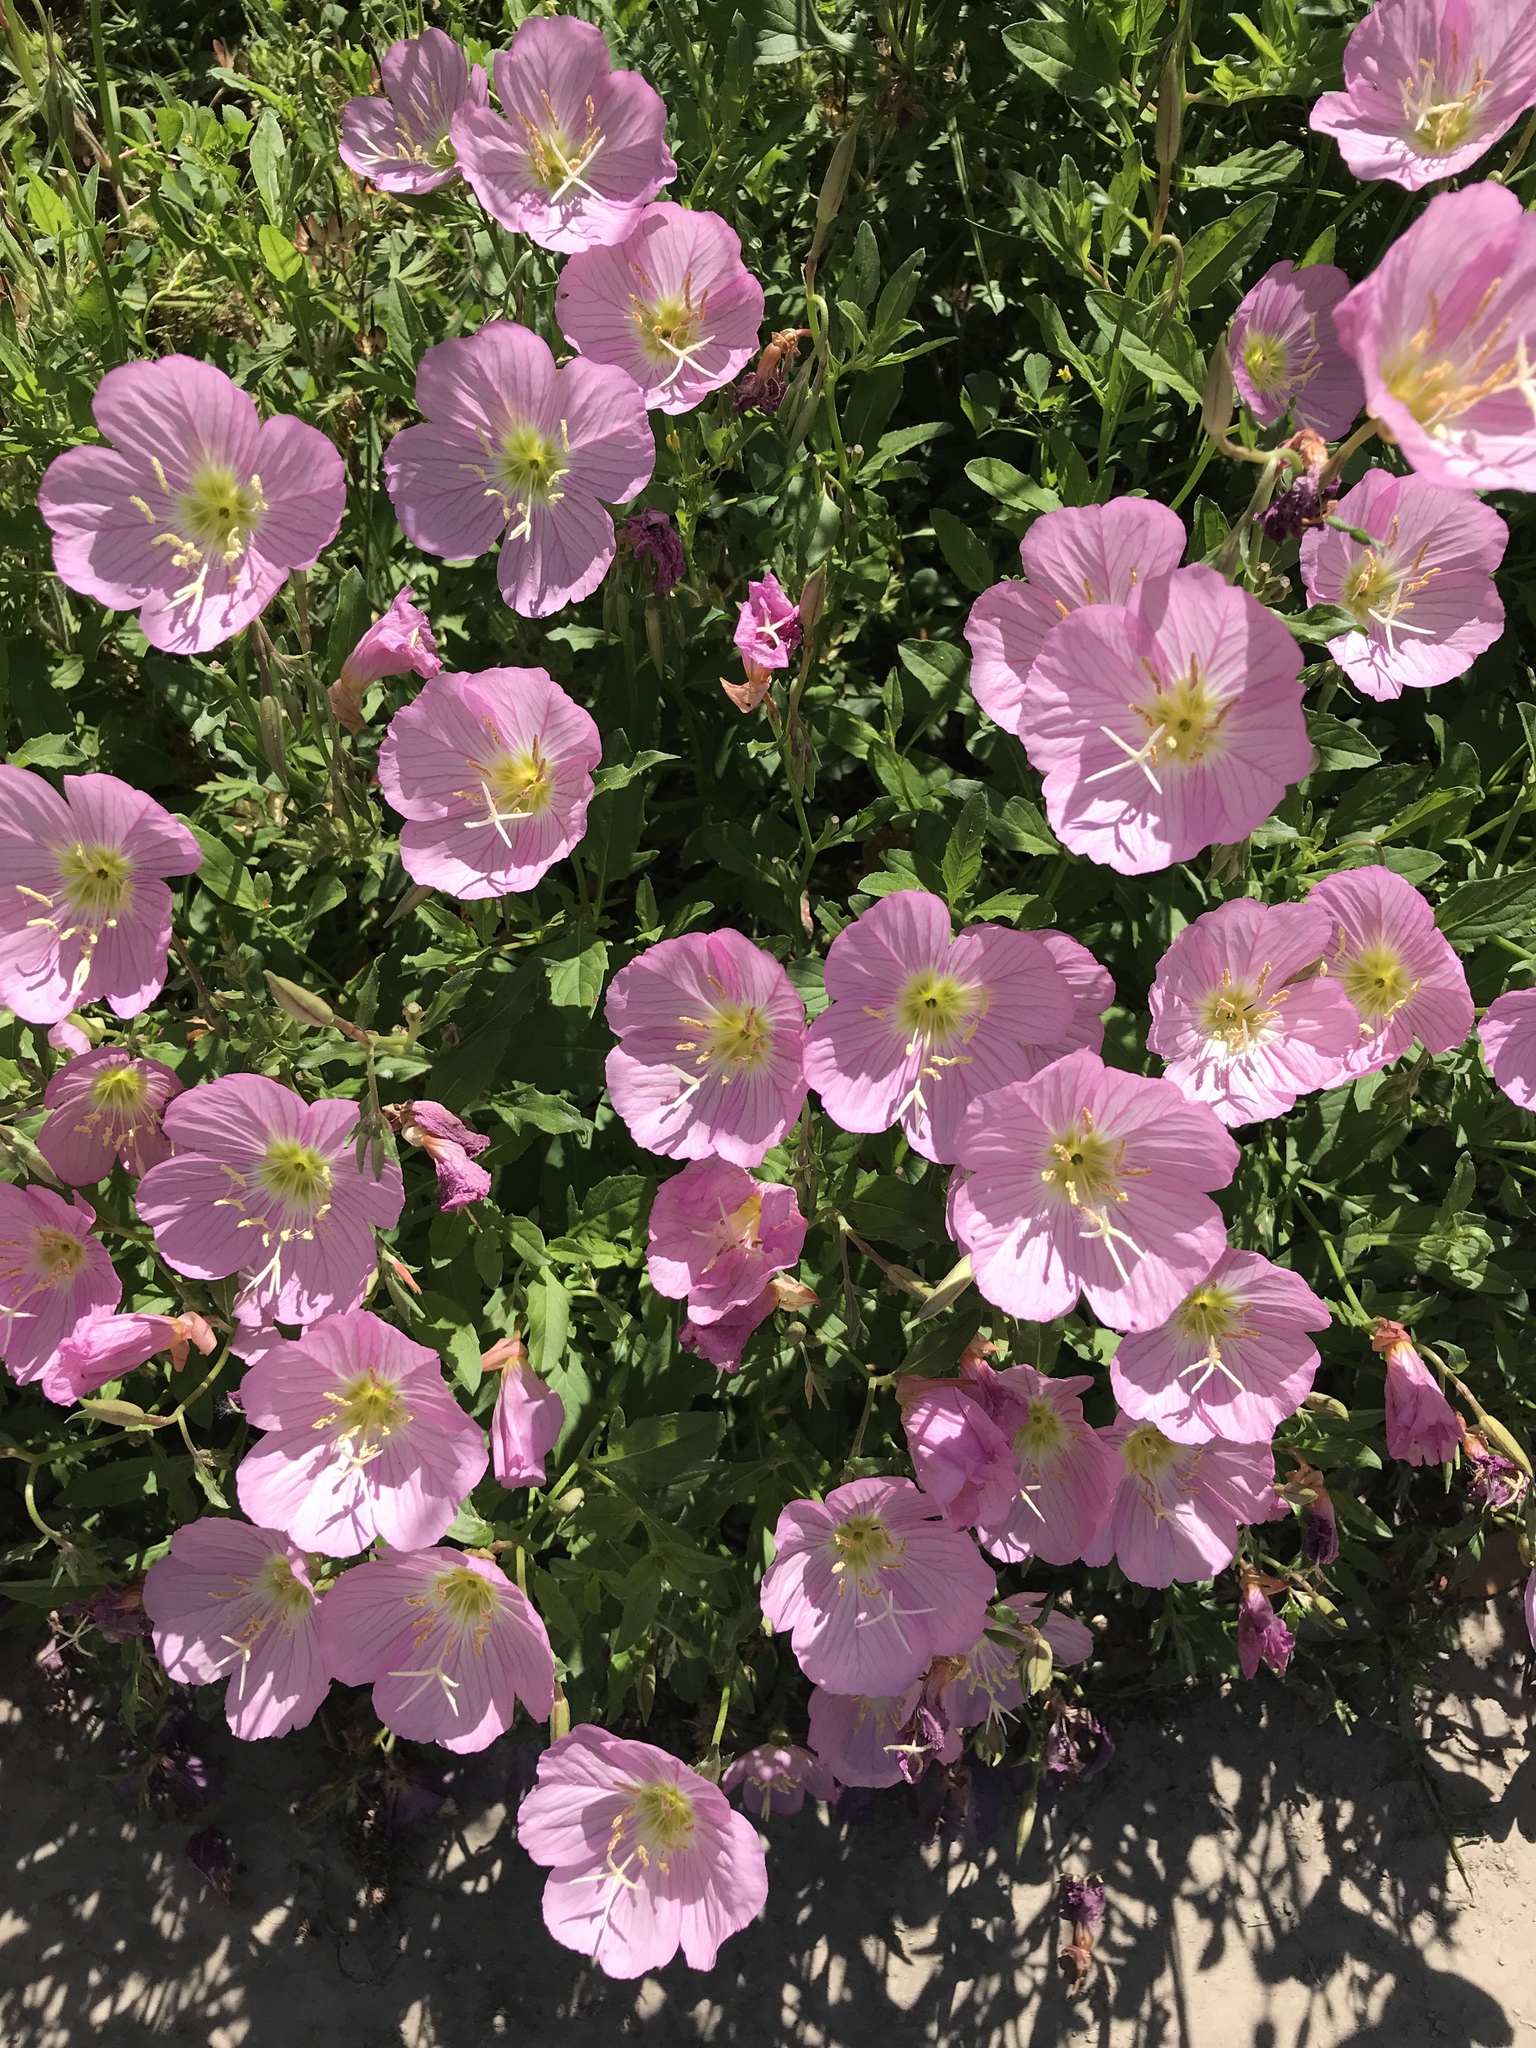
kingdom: Plantae
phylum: Tracheophyta
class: Magnoliopsida
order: Myrtales
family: Onagraceae
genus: Oenothera
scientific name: Oenothera speciosa
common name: White evening-primrose
